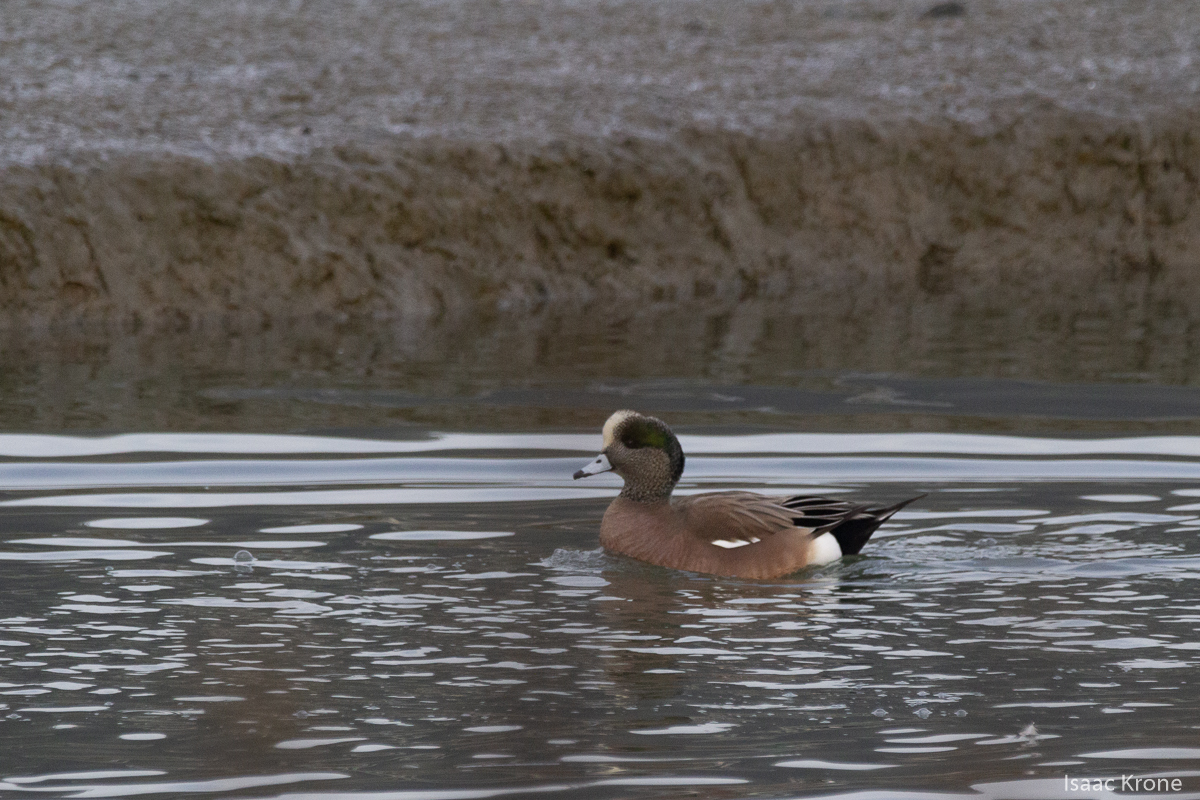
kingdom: Animalia
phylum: Chordata
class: Aves
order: Anseriformes
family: Anatidae
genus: Mareca
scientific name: Mareca americana
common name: American wigeon
